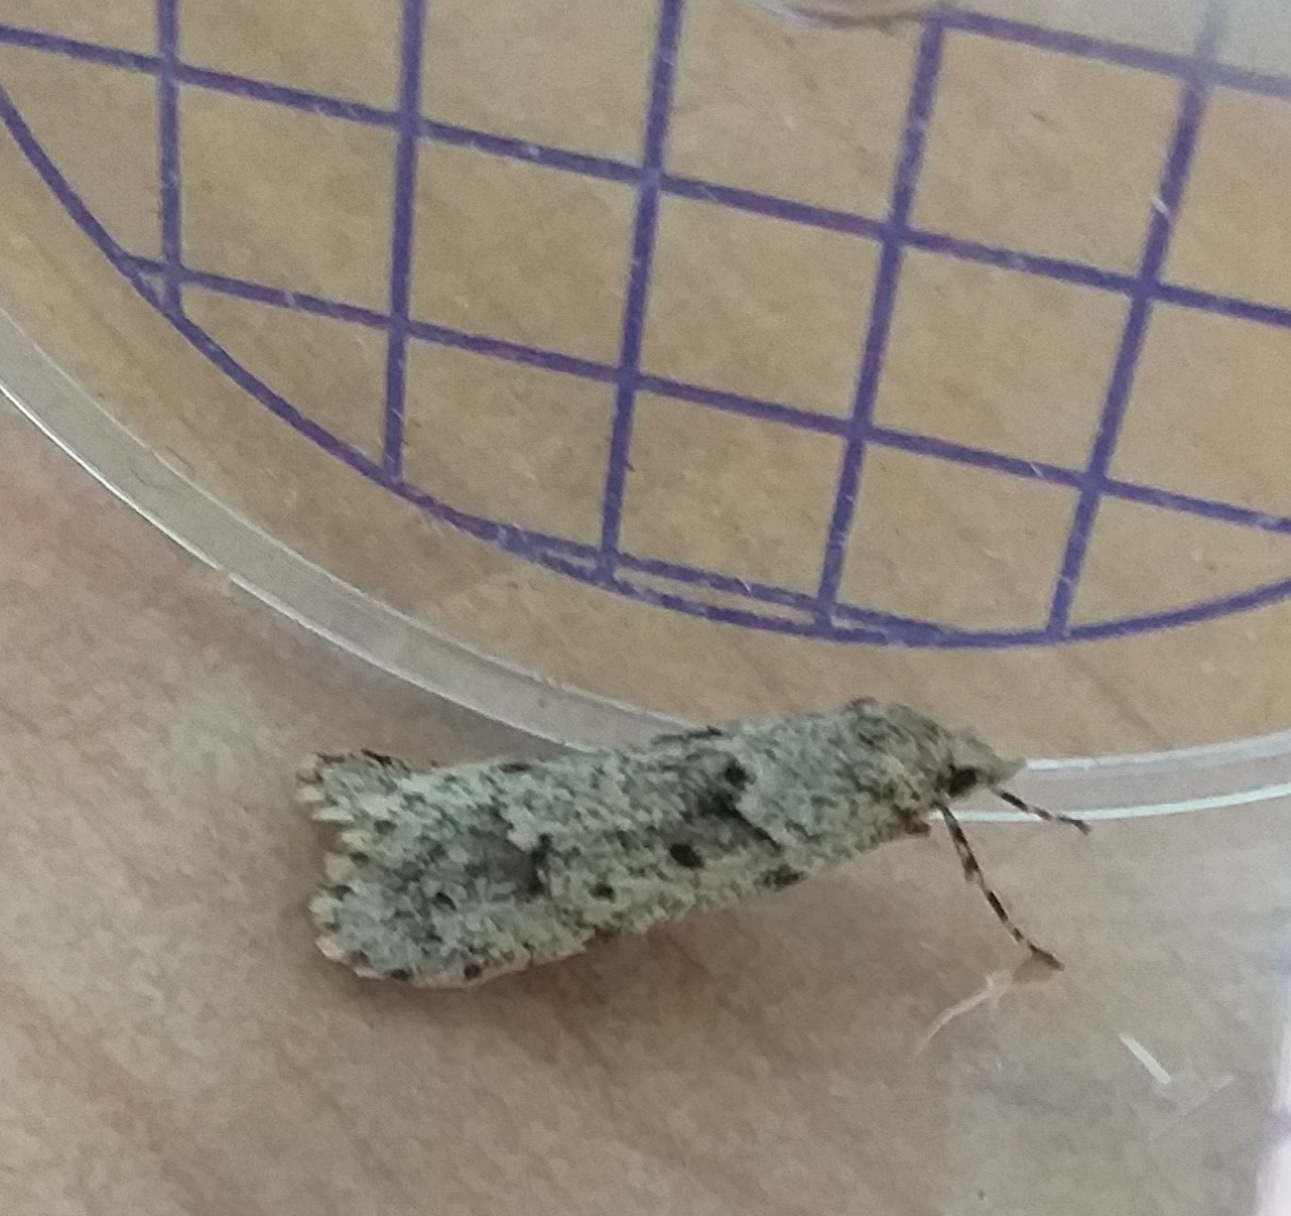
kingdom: Animalia
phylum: Arthropoda
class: Insecta
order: Lepidoptera
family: Lypusidae
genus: Diurnea
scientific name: Diurnea fagella
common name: March tubic
